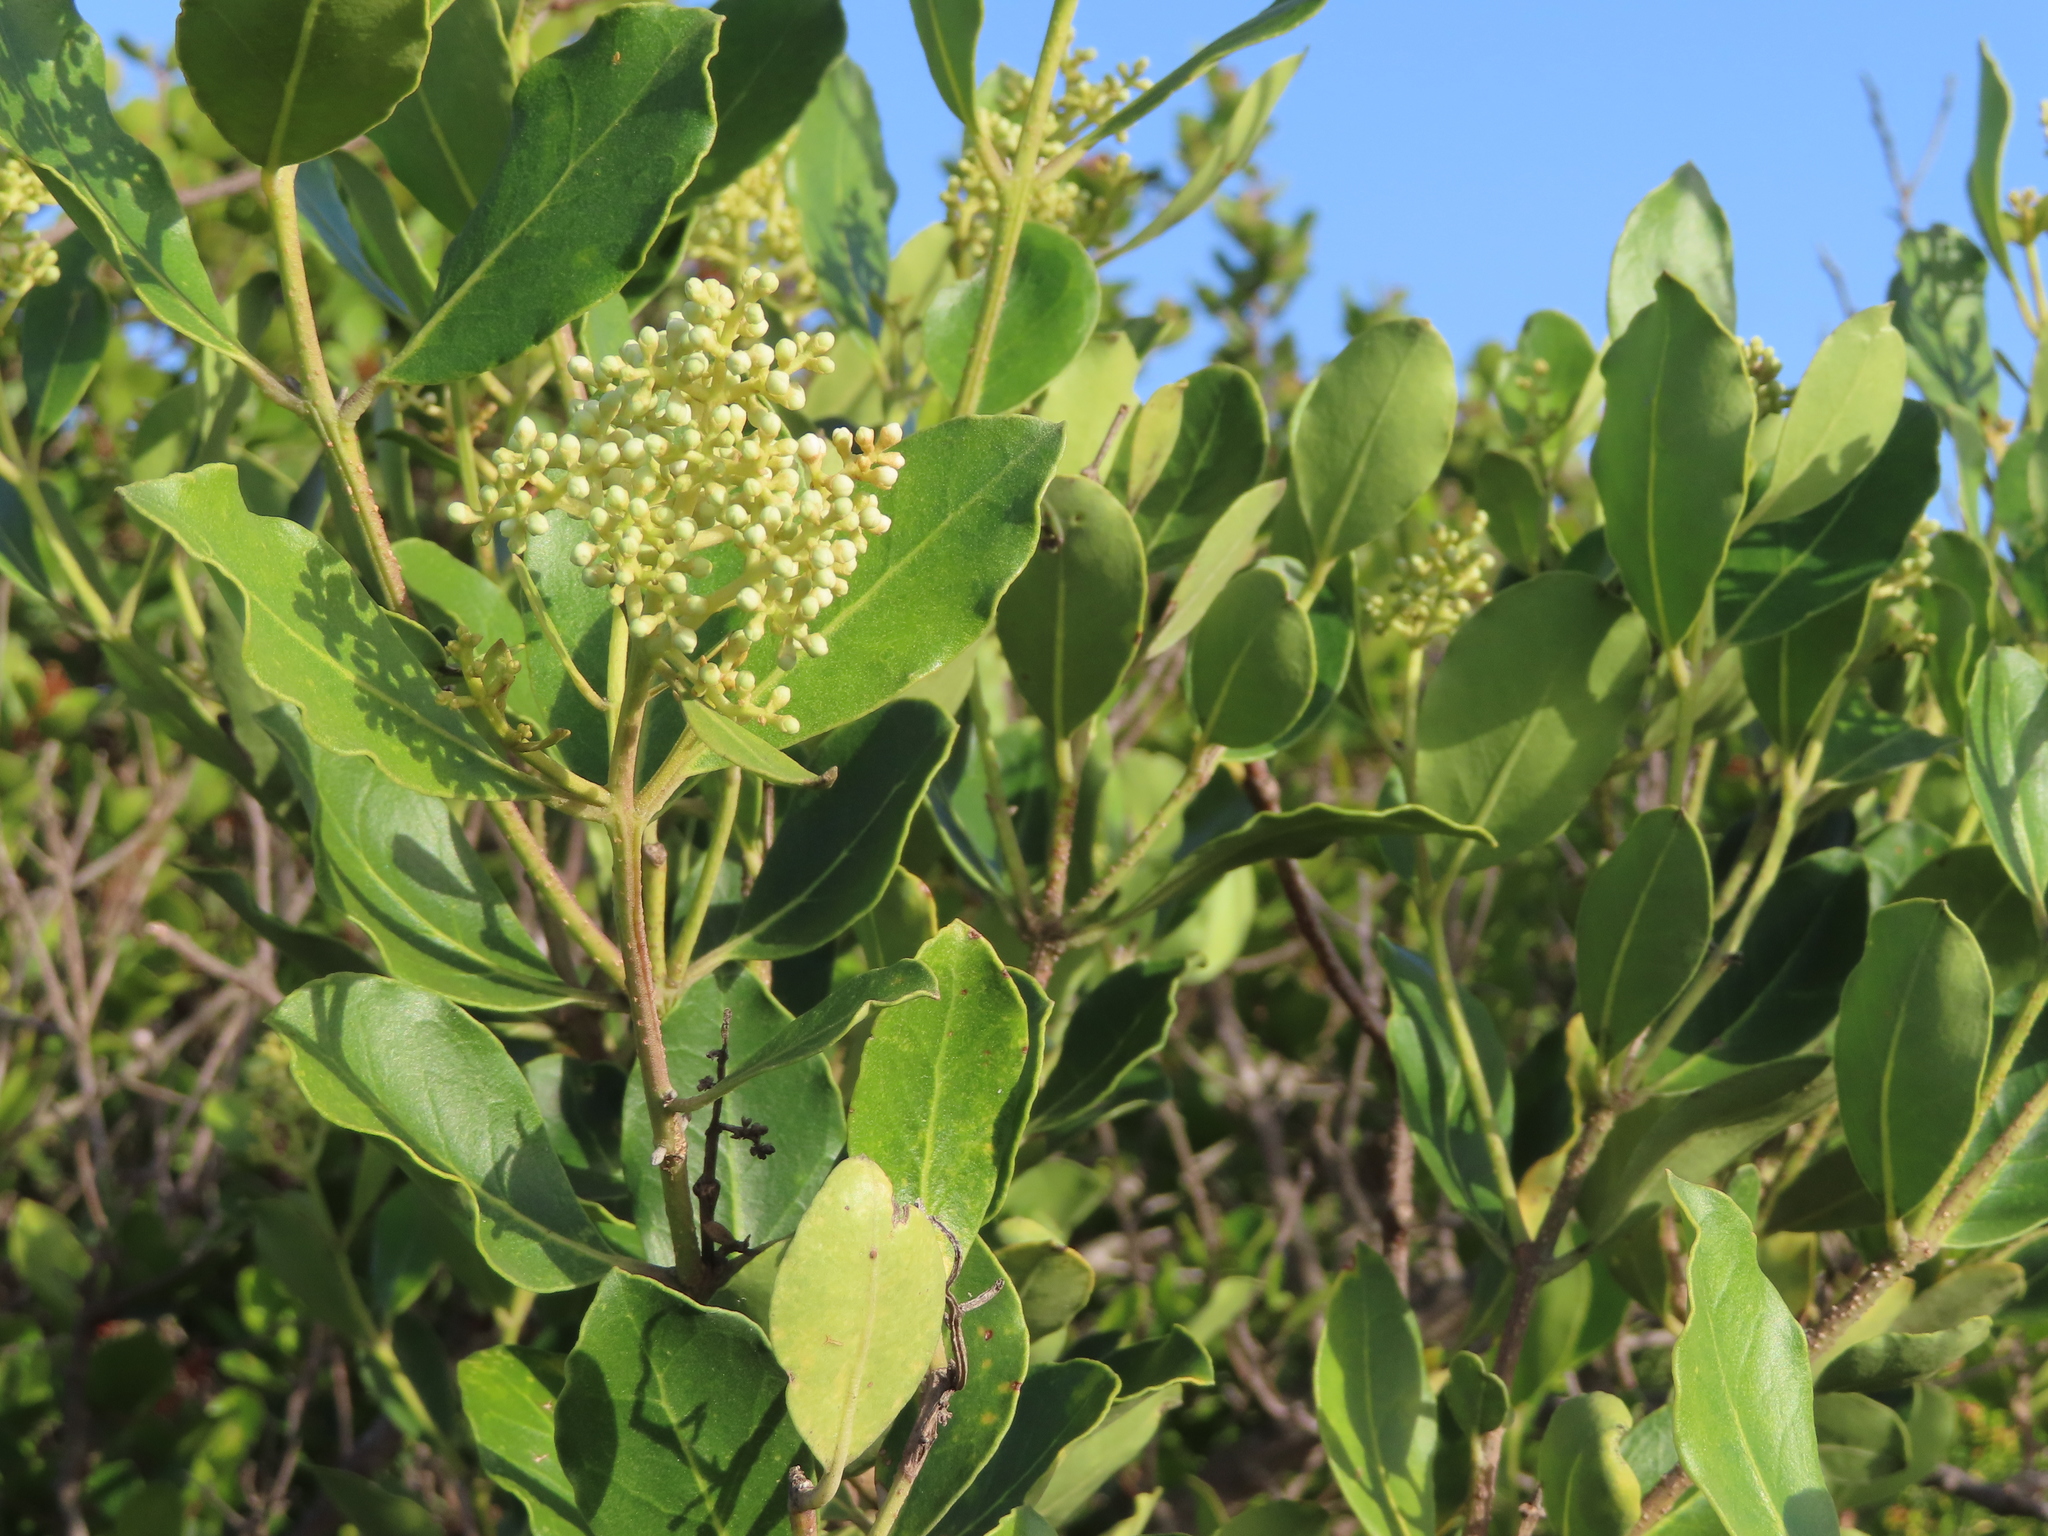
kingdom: Plantae
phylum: Tracheophyta
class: Magnoliopsida
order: Lamiales
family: Oleaceae
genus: Olea
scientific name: Olea capensis
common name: Black ironwood
